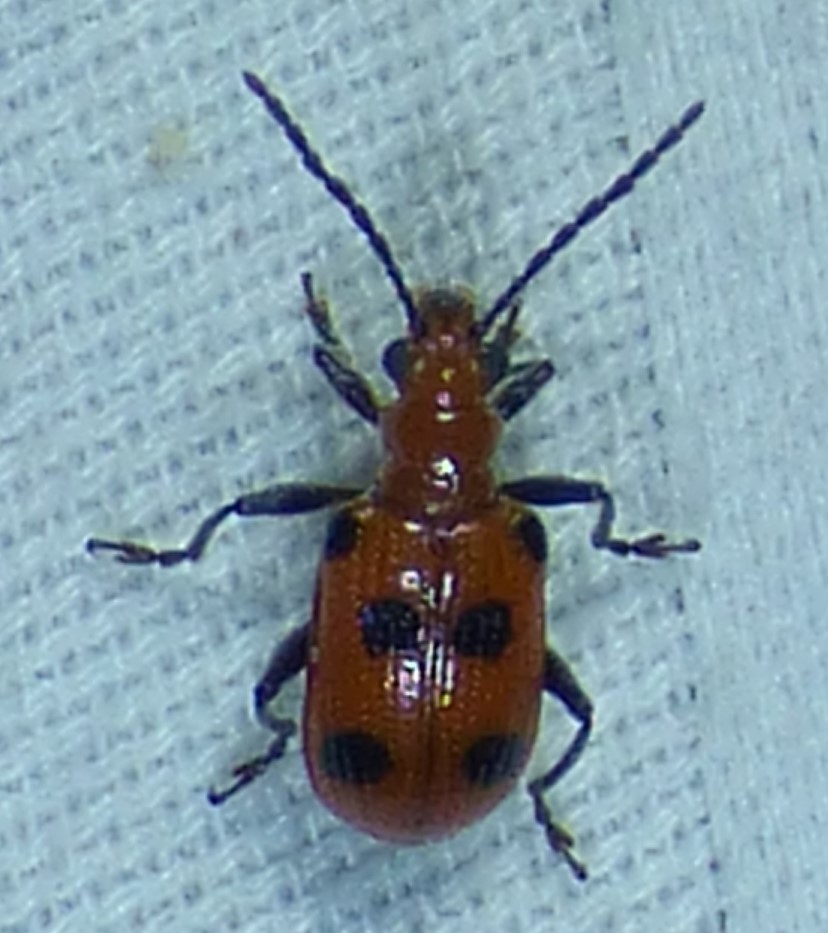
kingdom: Animalia
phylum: Arthropoda
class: Insecta
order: Coleoptera
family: Chrysomelidae
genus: Neolema
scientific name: Neolema sexpunctata
